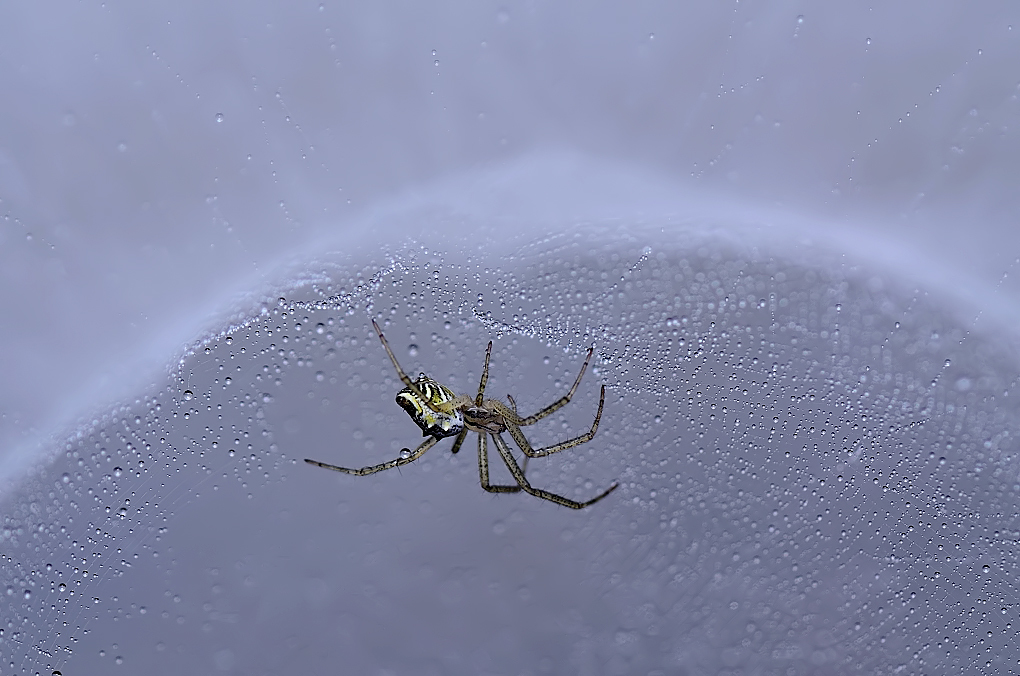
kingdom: Animalia
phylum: Arthropoda
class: Arachnida
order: Araneae
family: Araneidae
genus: Cyrtophora
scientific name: Cyrtophora cicatrosa
